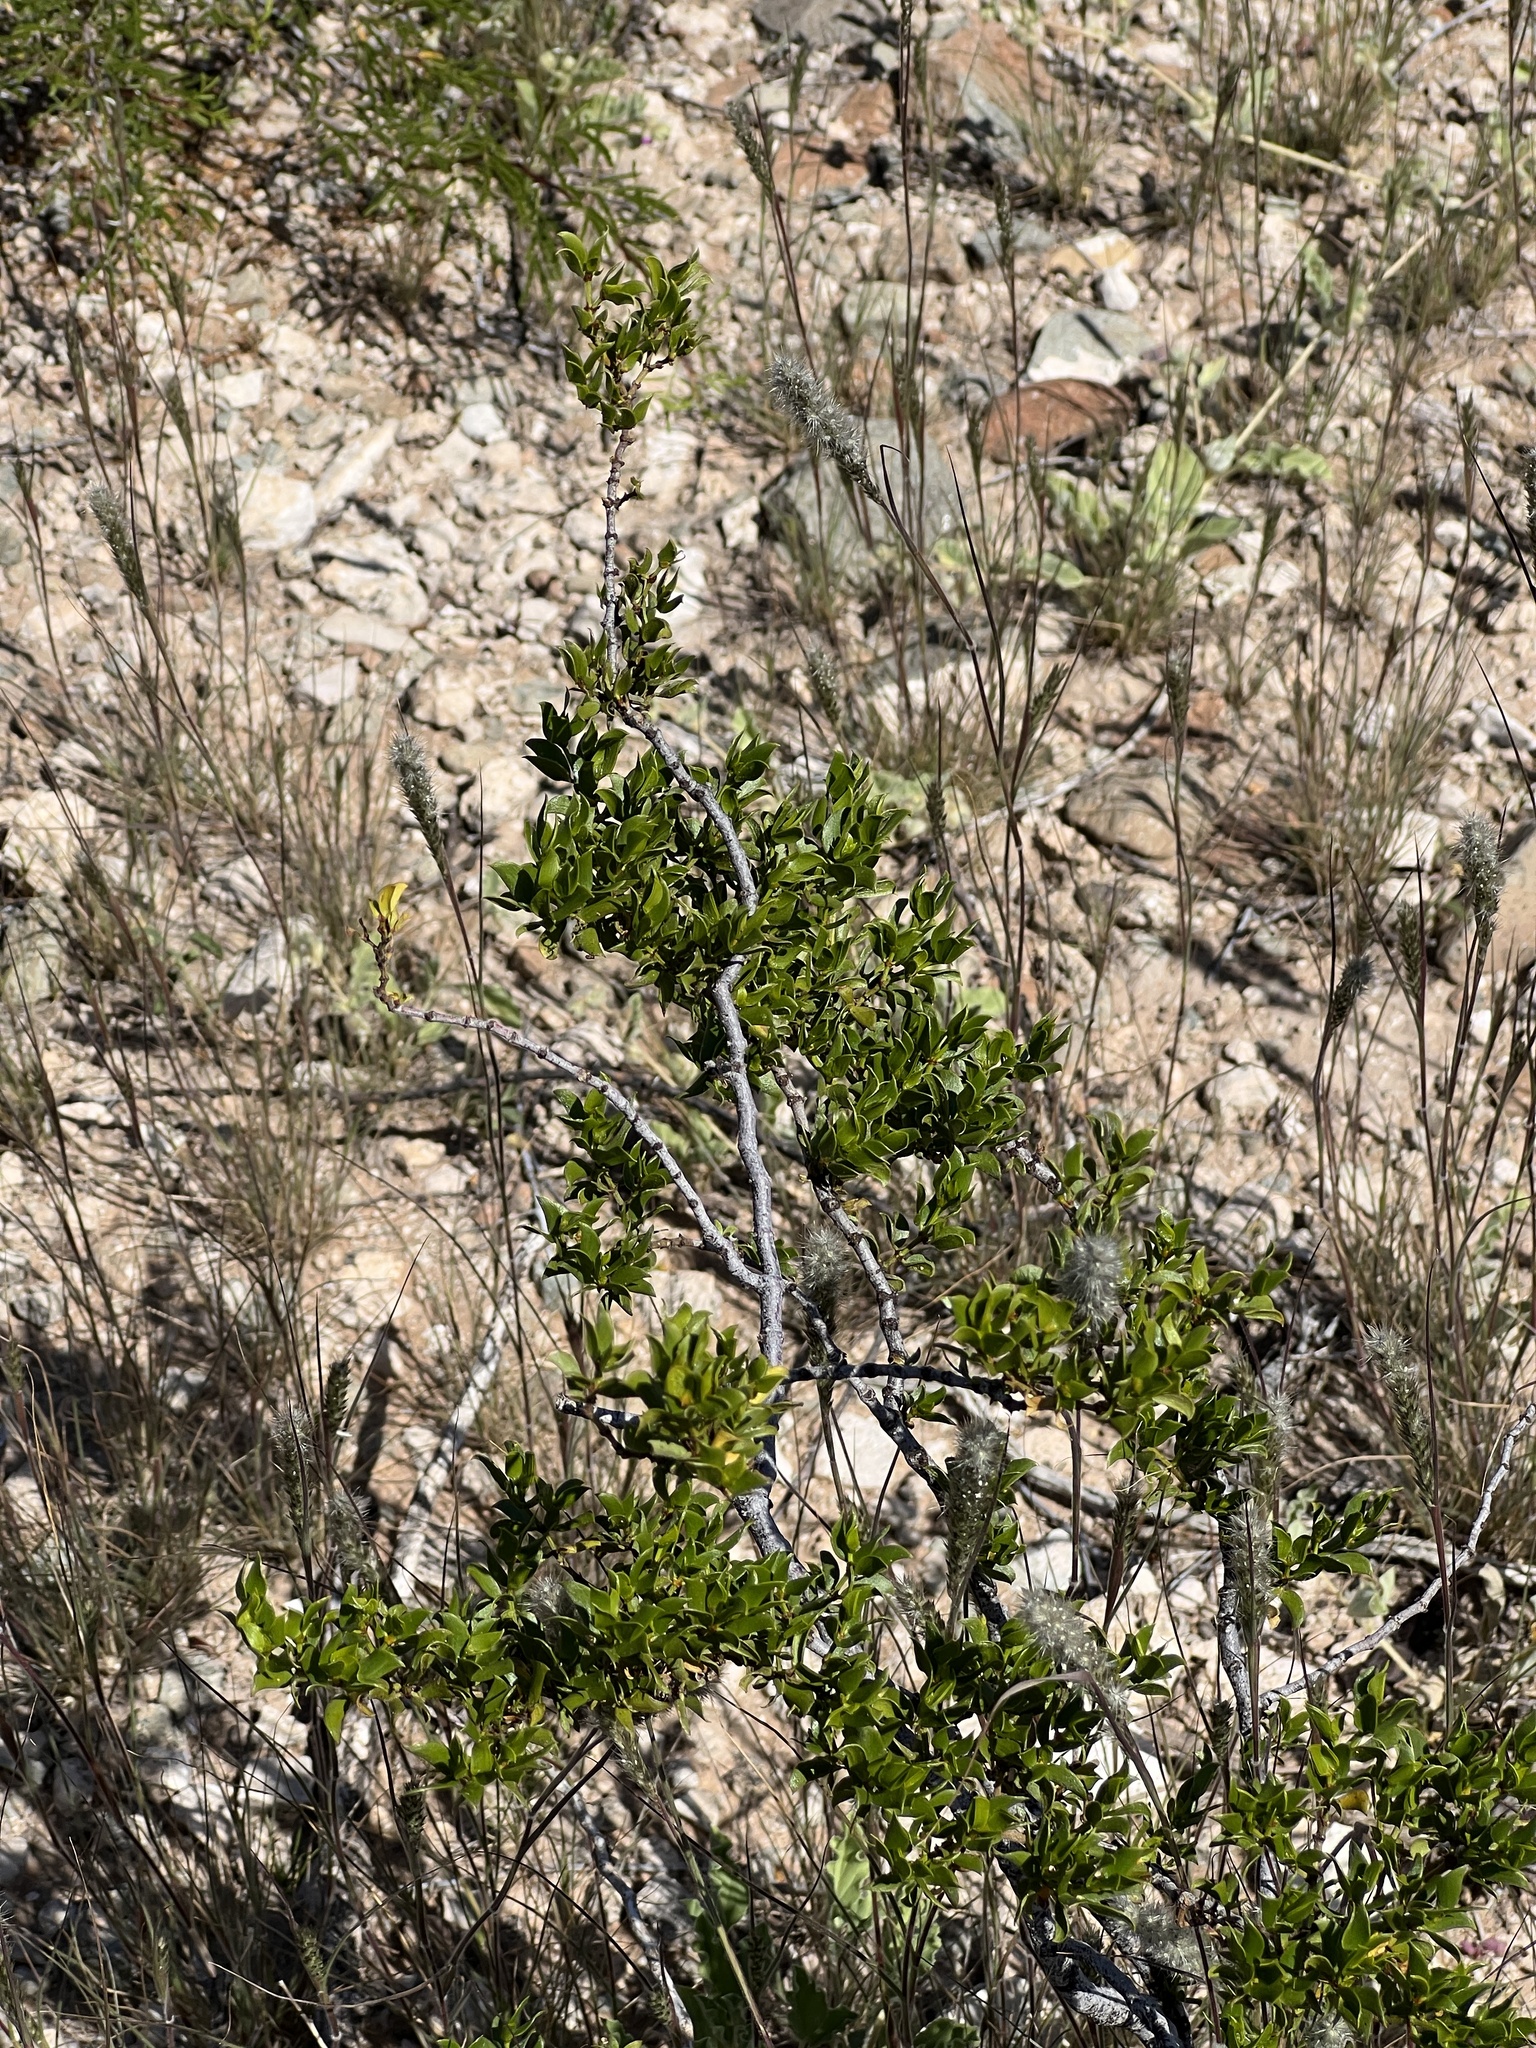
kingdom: Plantae
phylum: Tracheophyta
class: Magnoliopsida
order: Zygophyllales
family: Zygophyllaceae
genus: Larrea
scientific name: Larrea tridentata
